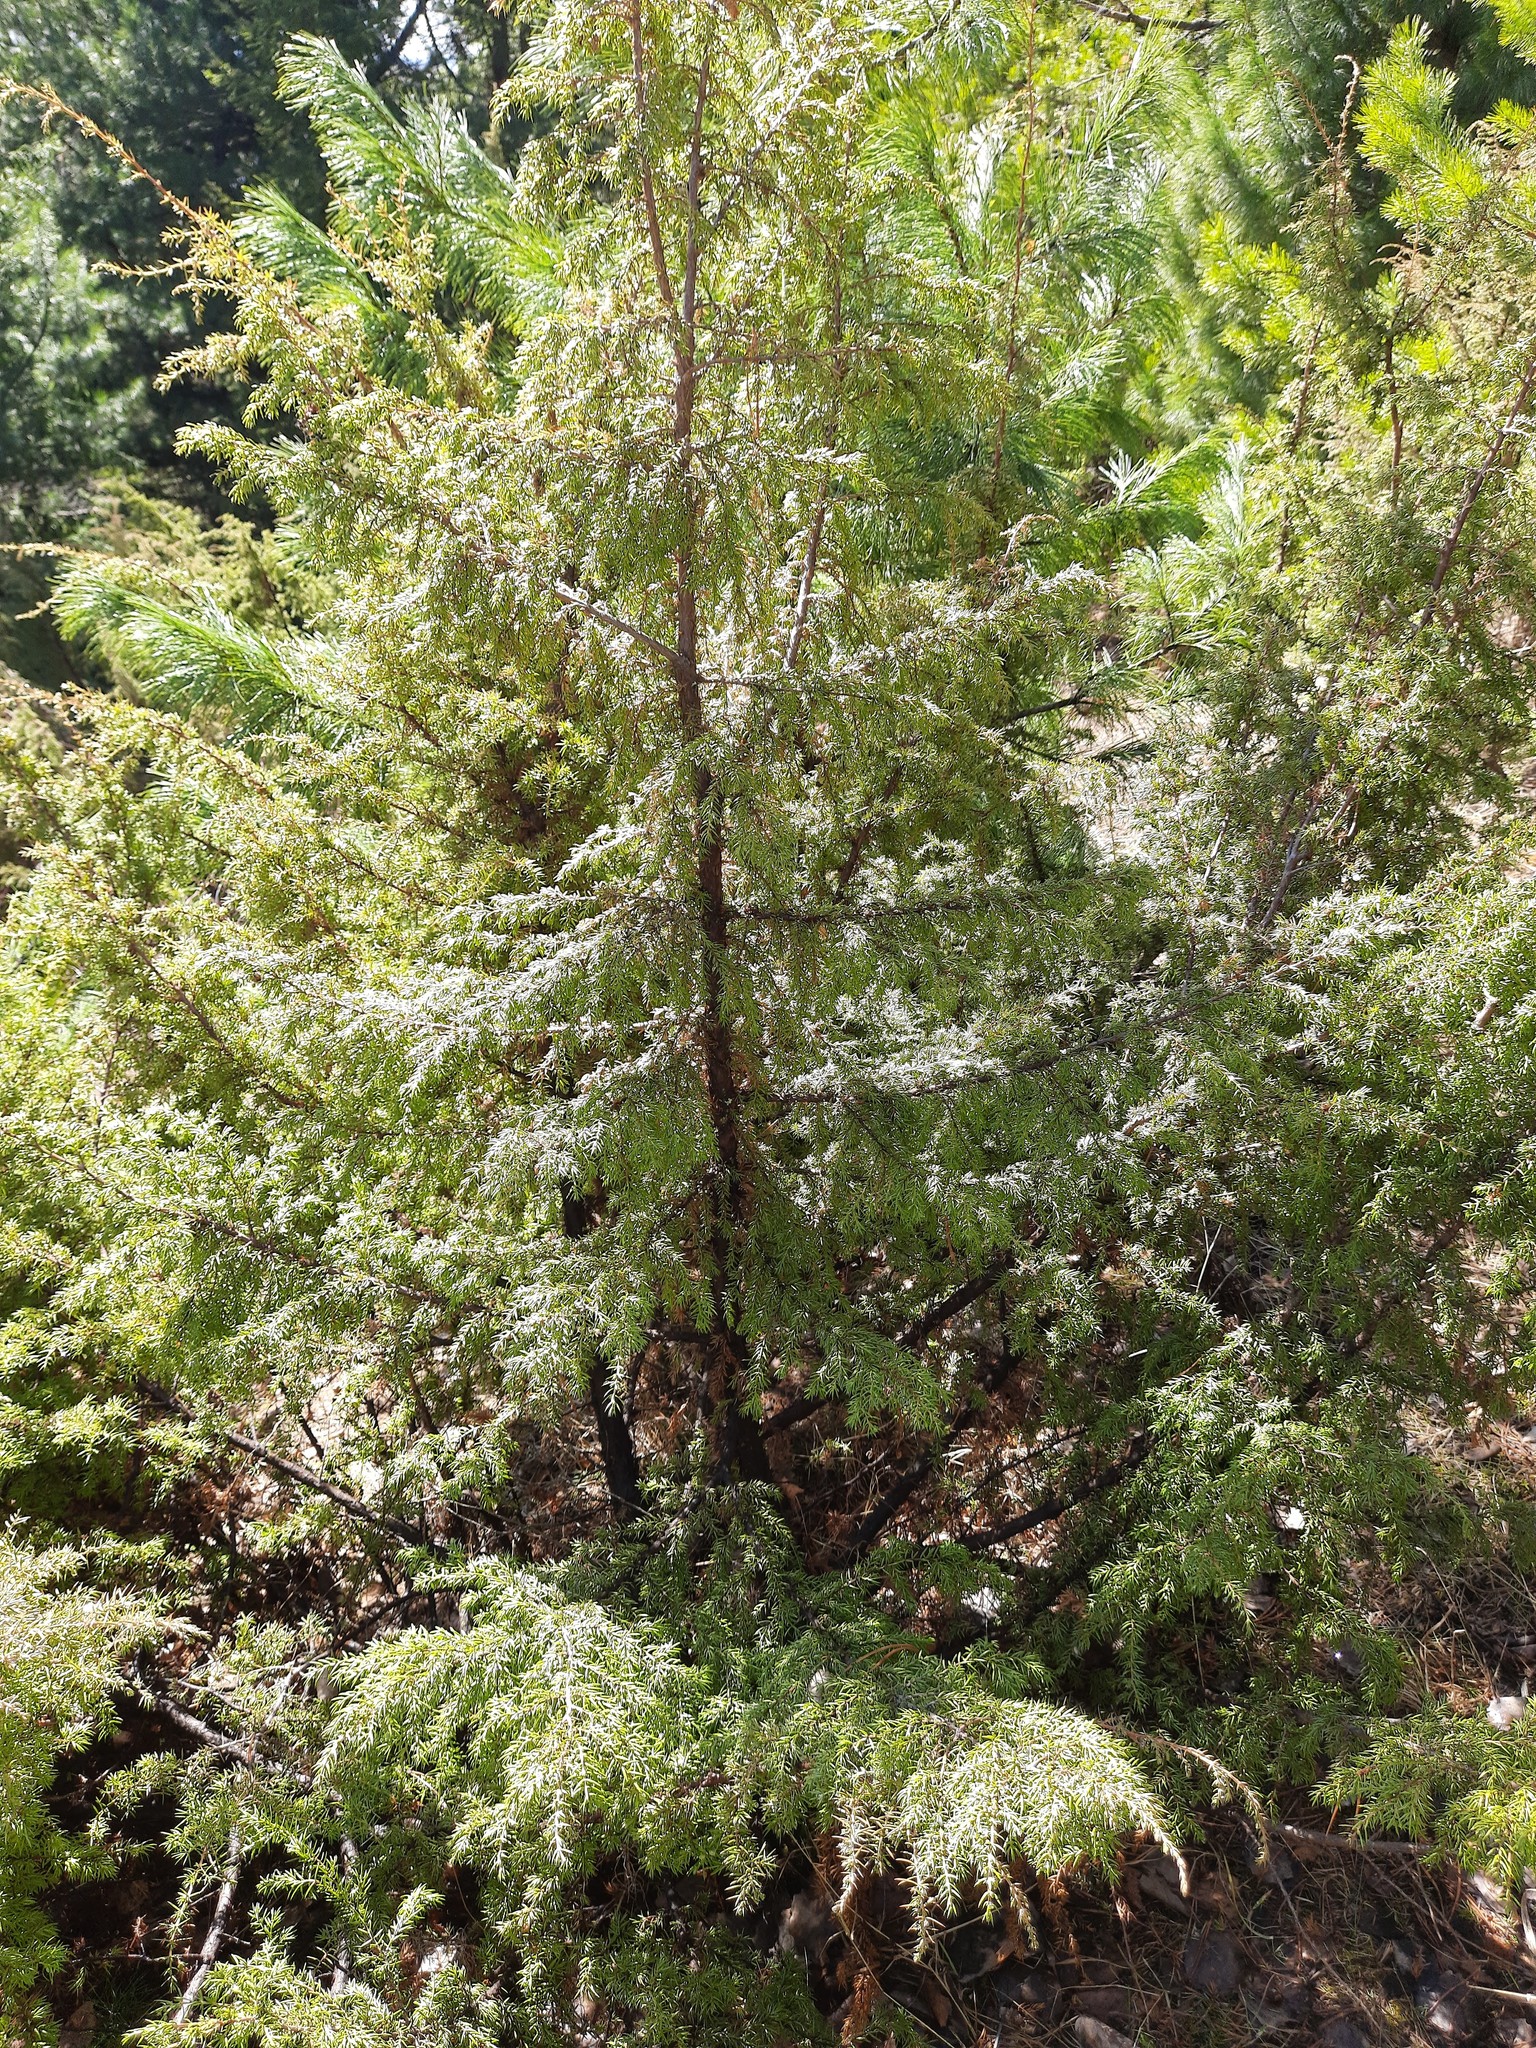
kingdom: Plantae
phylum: Tracheophyta
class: Pinopsida
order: Pinales
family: Cupressaceae
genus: Juniperus
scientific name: Juniperus communis
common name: Common juniper
